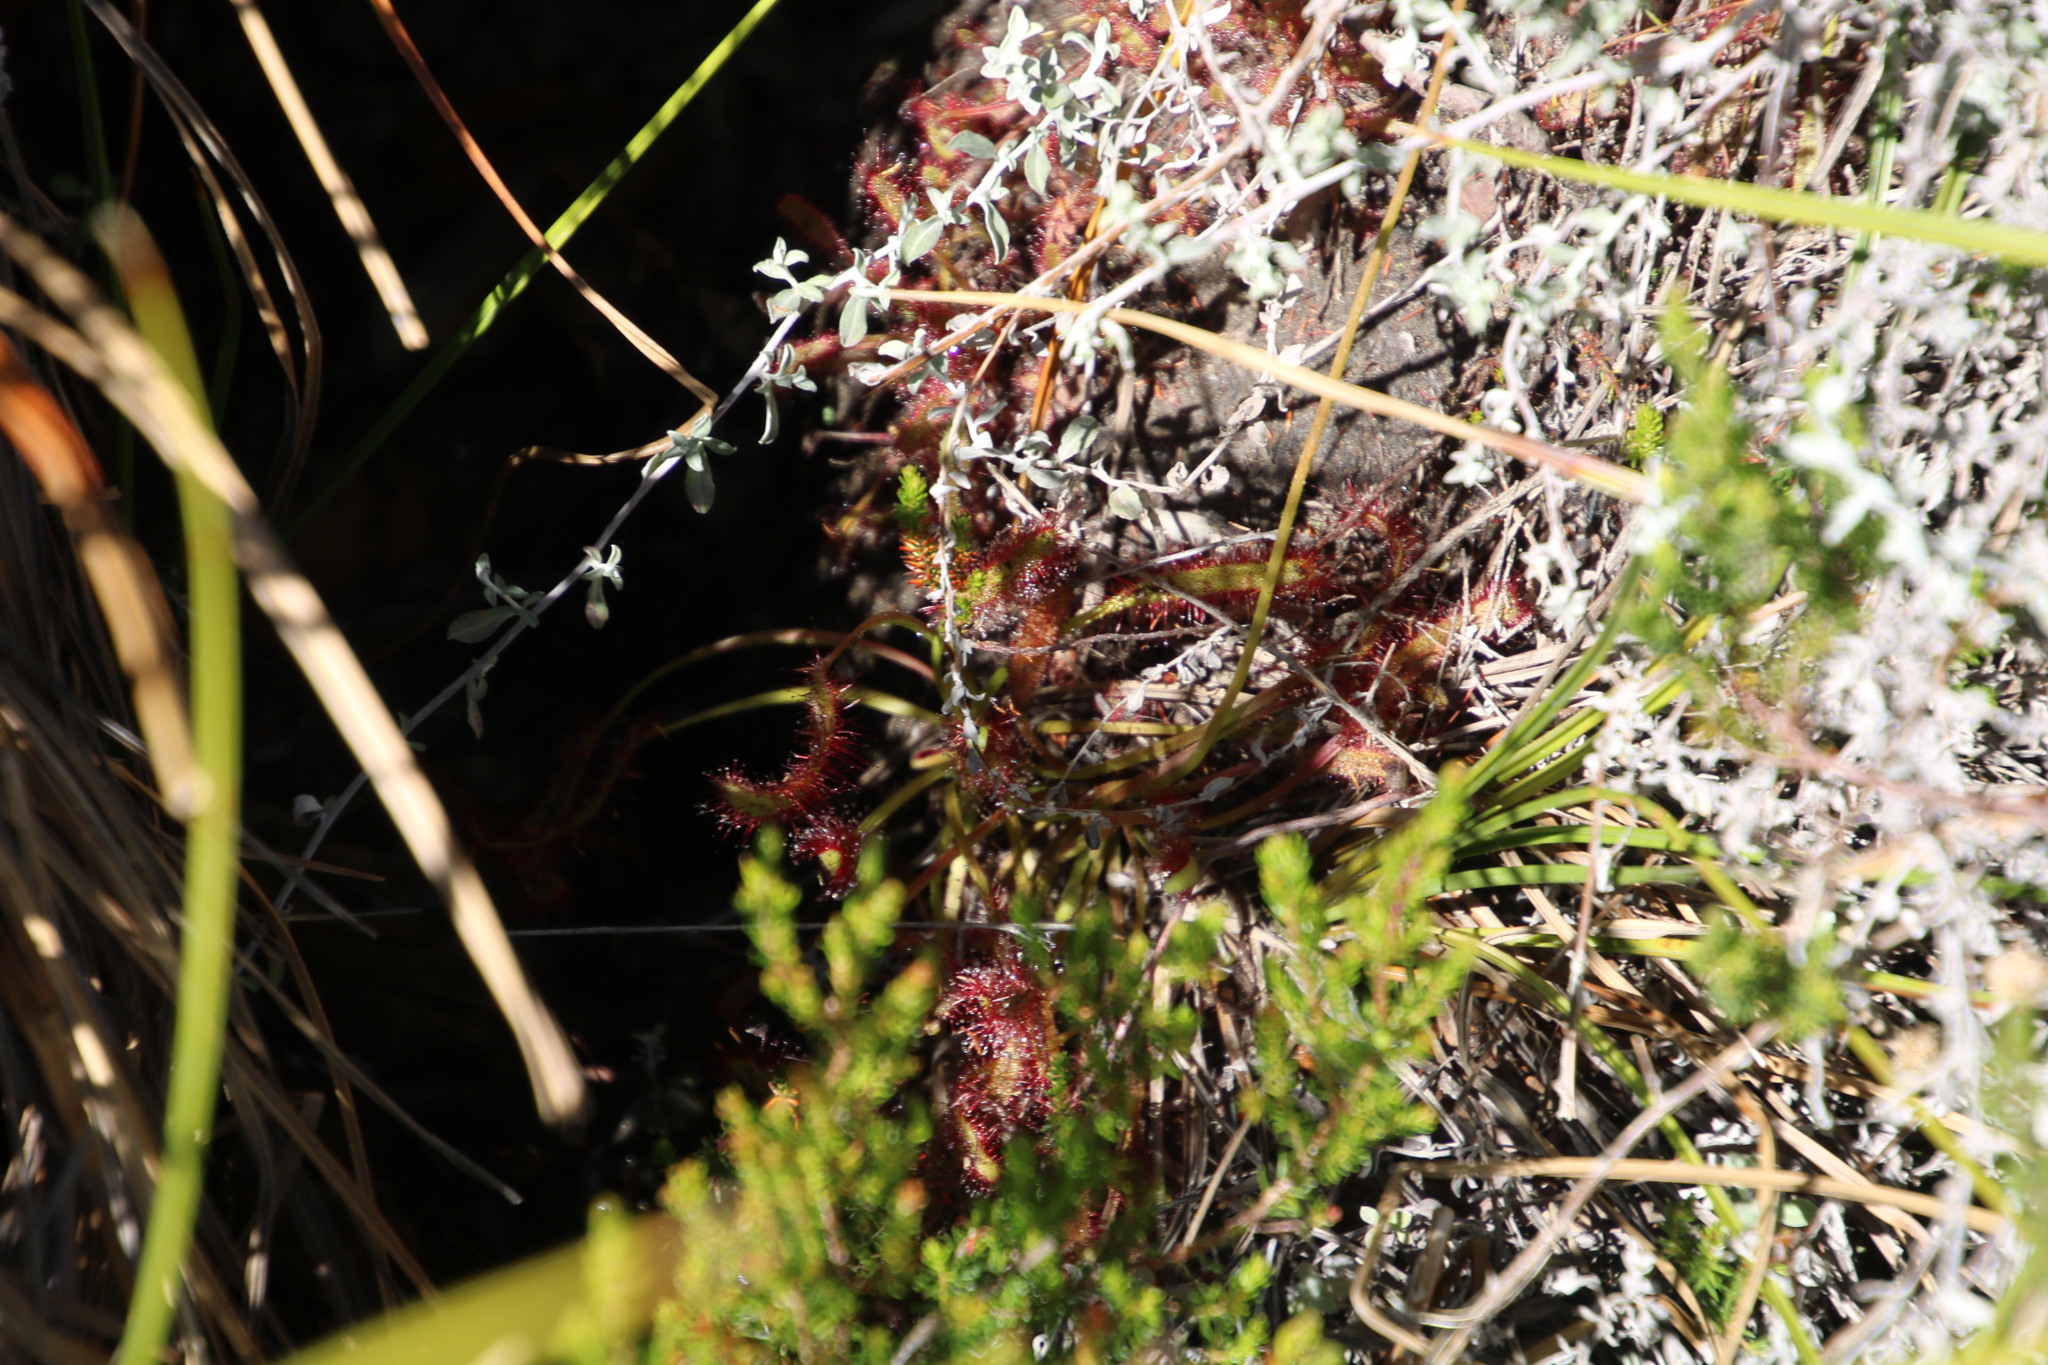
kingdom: Plantae
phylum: Tracheophyta
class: Magnoliopsida
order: Caryophyllales
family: Droseraceae
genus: Drosera
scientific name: Drosera capensis
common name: Cape sundew
